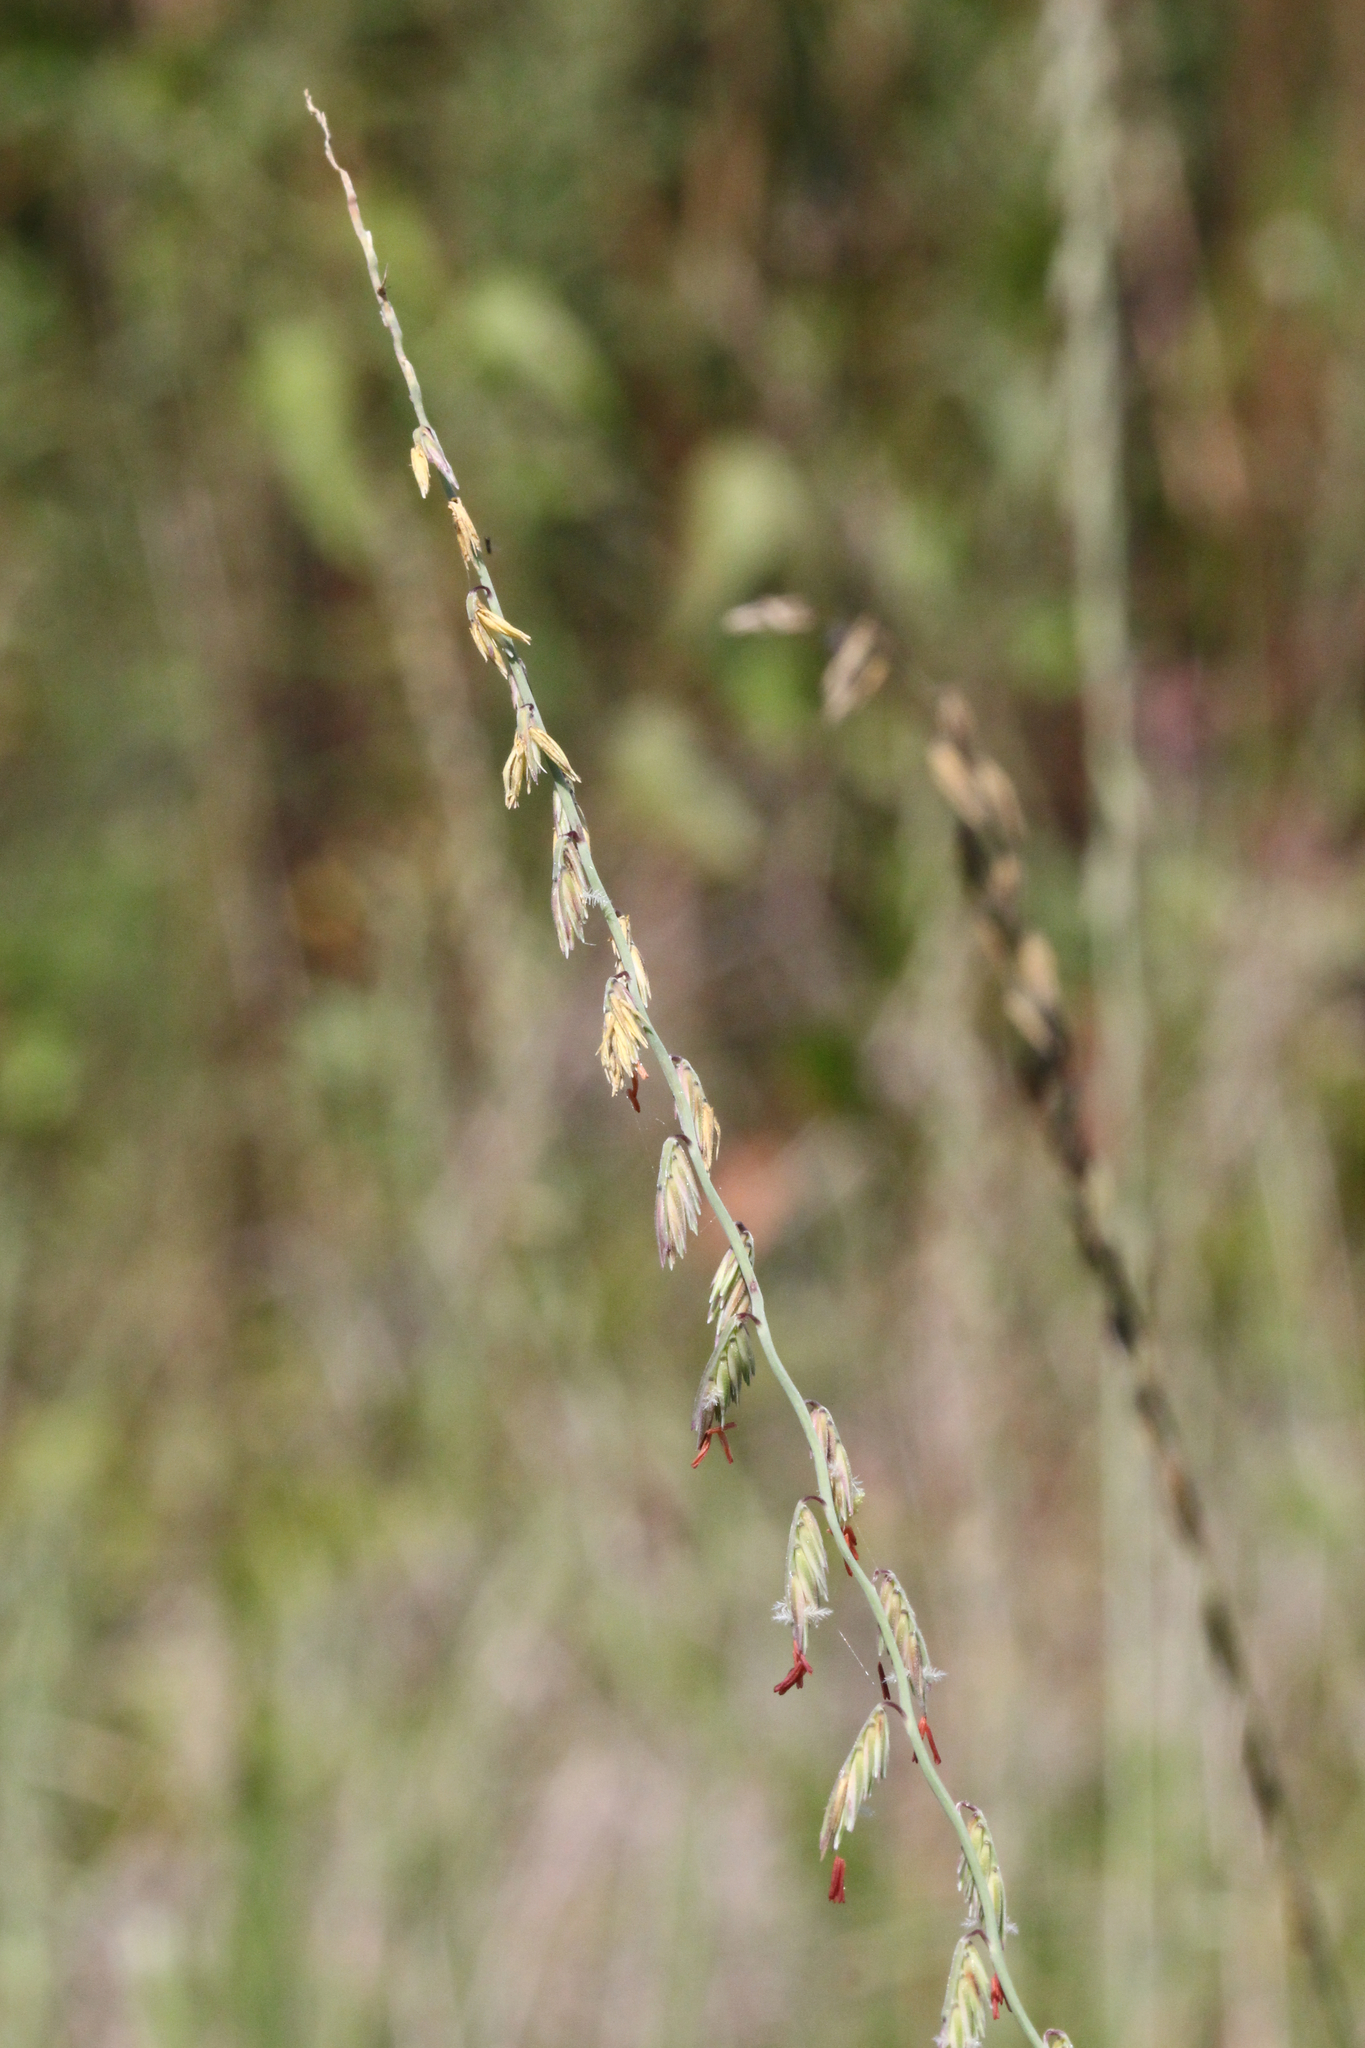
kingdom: Plantae
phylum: Tracheophyta
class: Liliopsida
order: Poales
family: Poaceae
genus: Bouteloua
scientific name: Bouteloua curtipendula
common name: Side-oats grama
